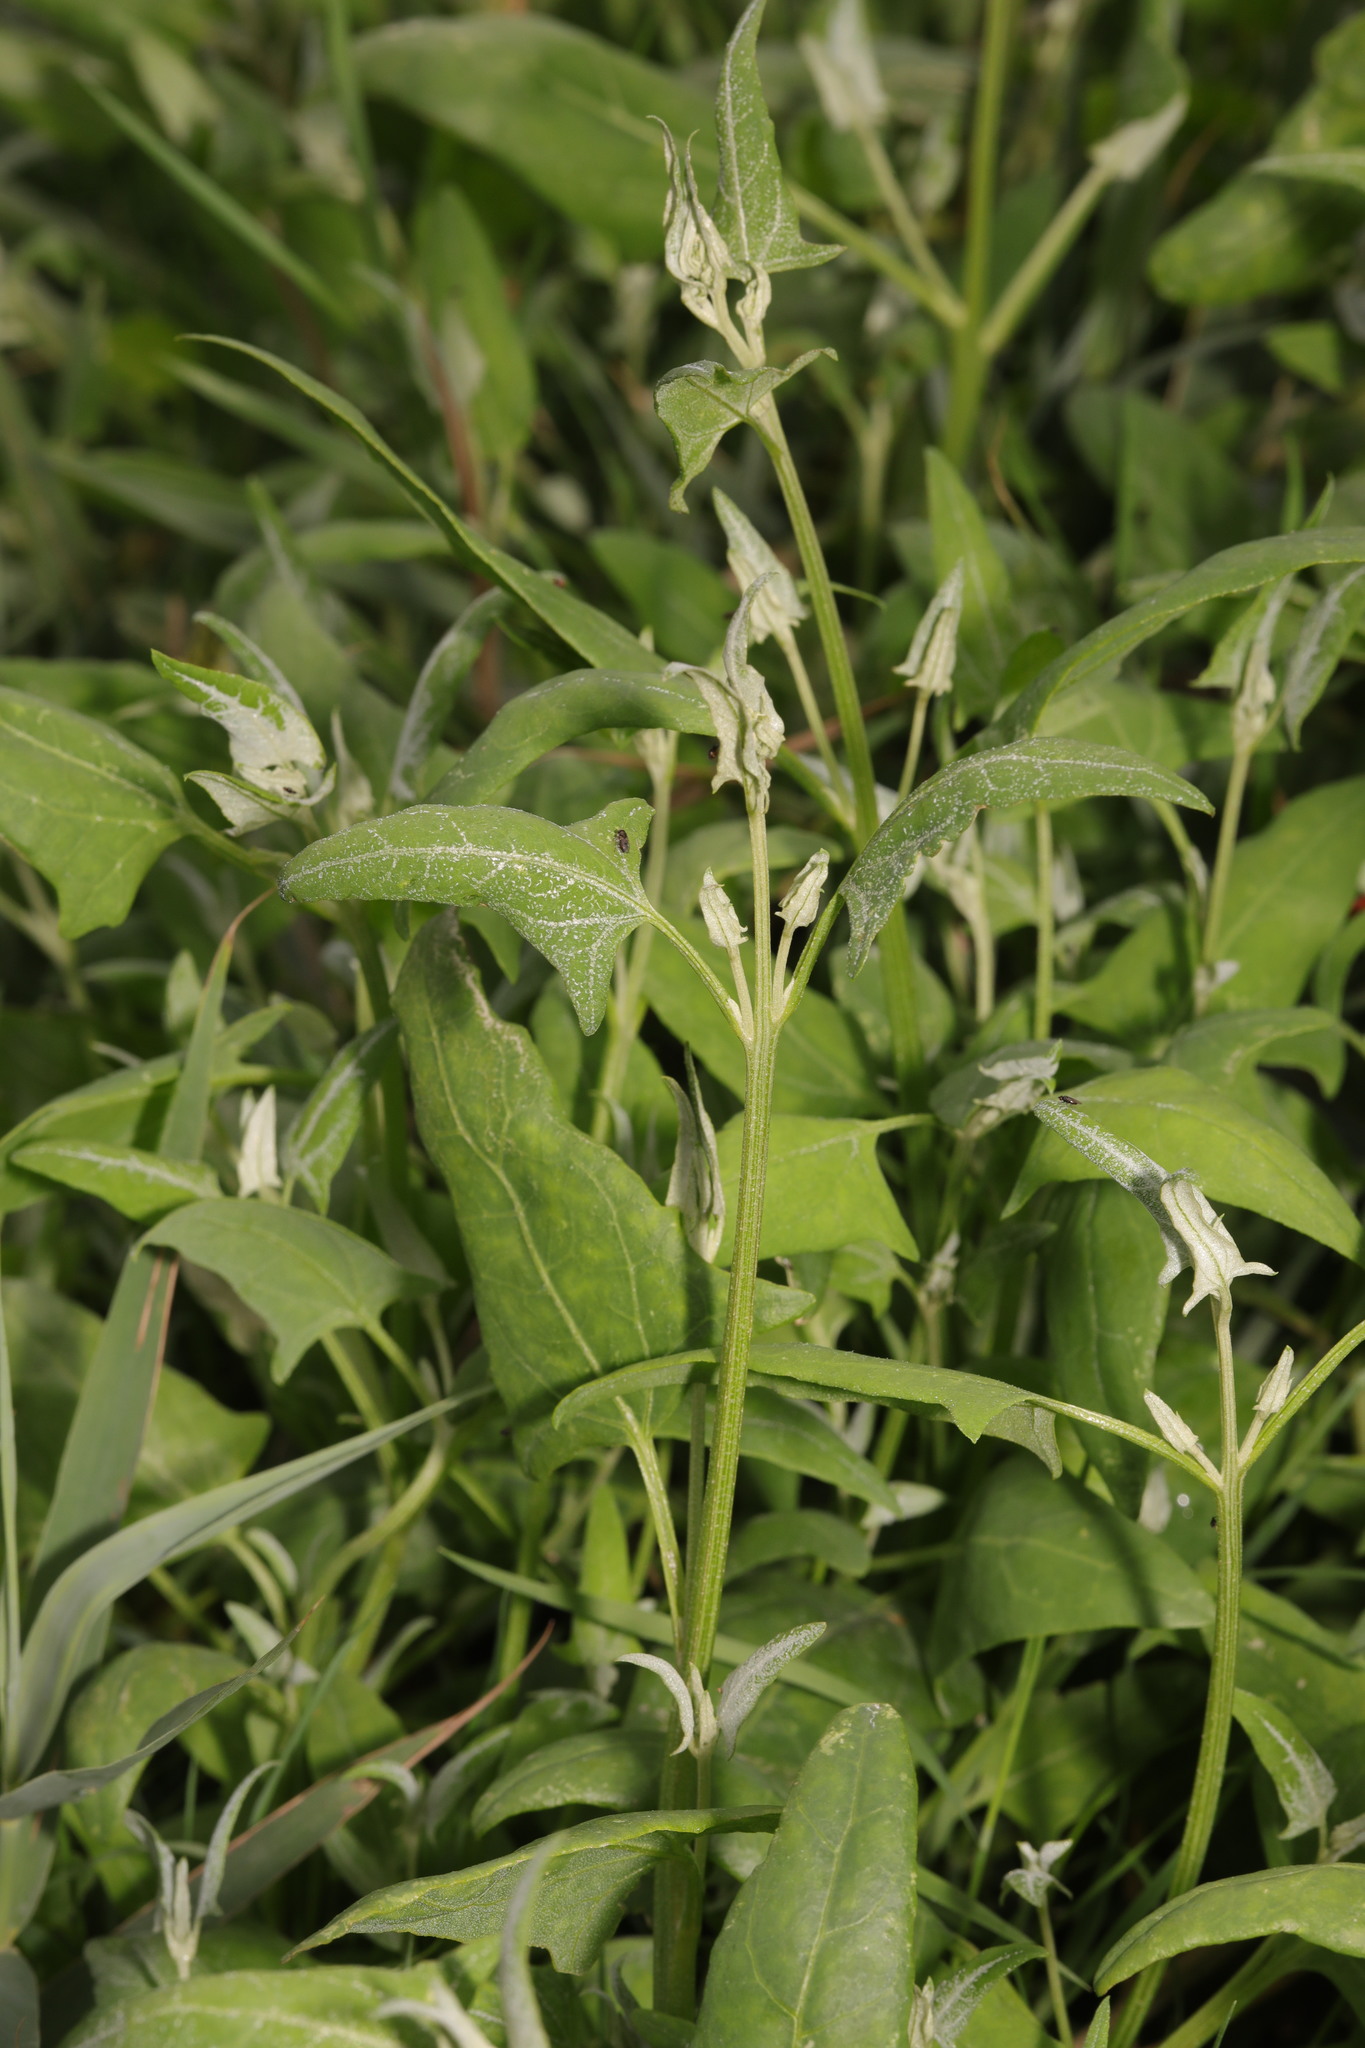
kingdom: Plantae
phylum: Tracheophyta
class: Magnoliopsida
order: Caryophyllales
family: Amaranthaceae
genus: Atriplex
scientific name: Atriplex prostrata
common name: Spear-leaved orache
